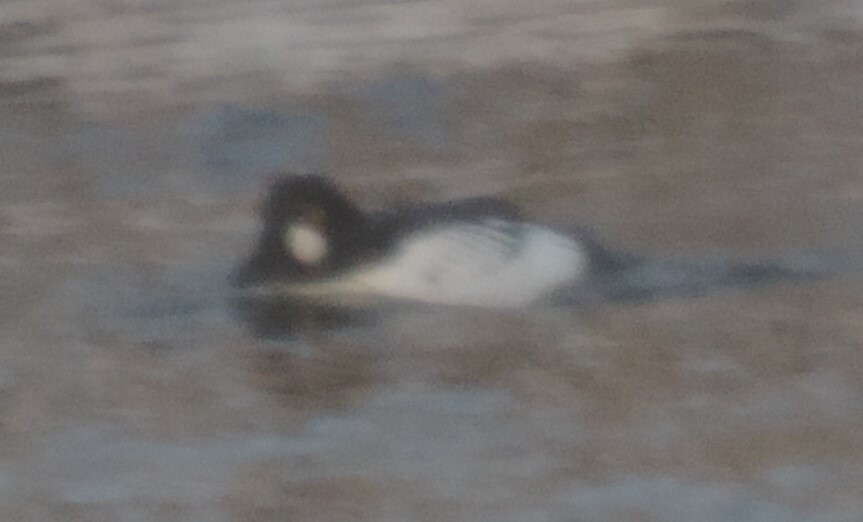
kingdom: Animalia
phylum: Chordata
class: Aves
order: Anseriformes
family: Anatidae
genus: Bucephala
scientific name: Bucephala clangula
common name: Common goldeneye
